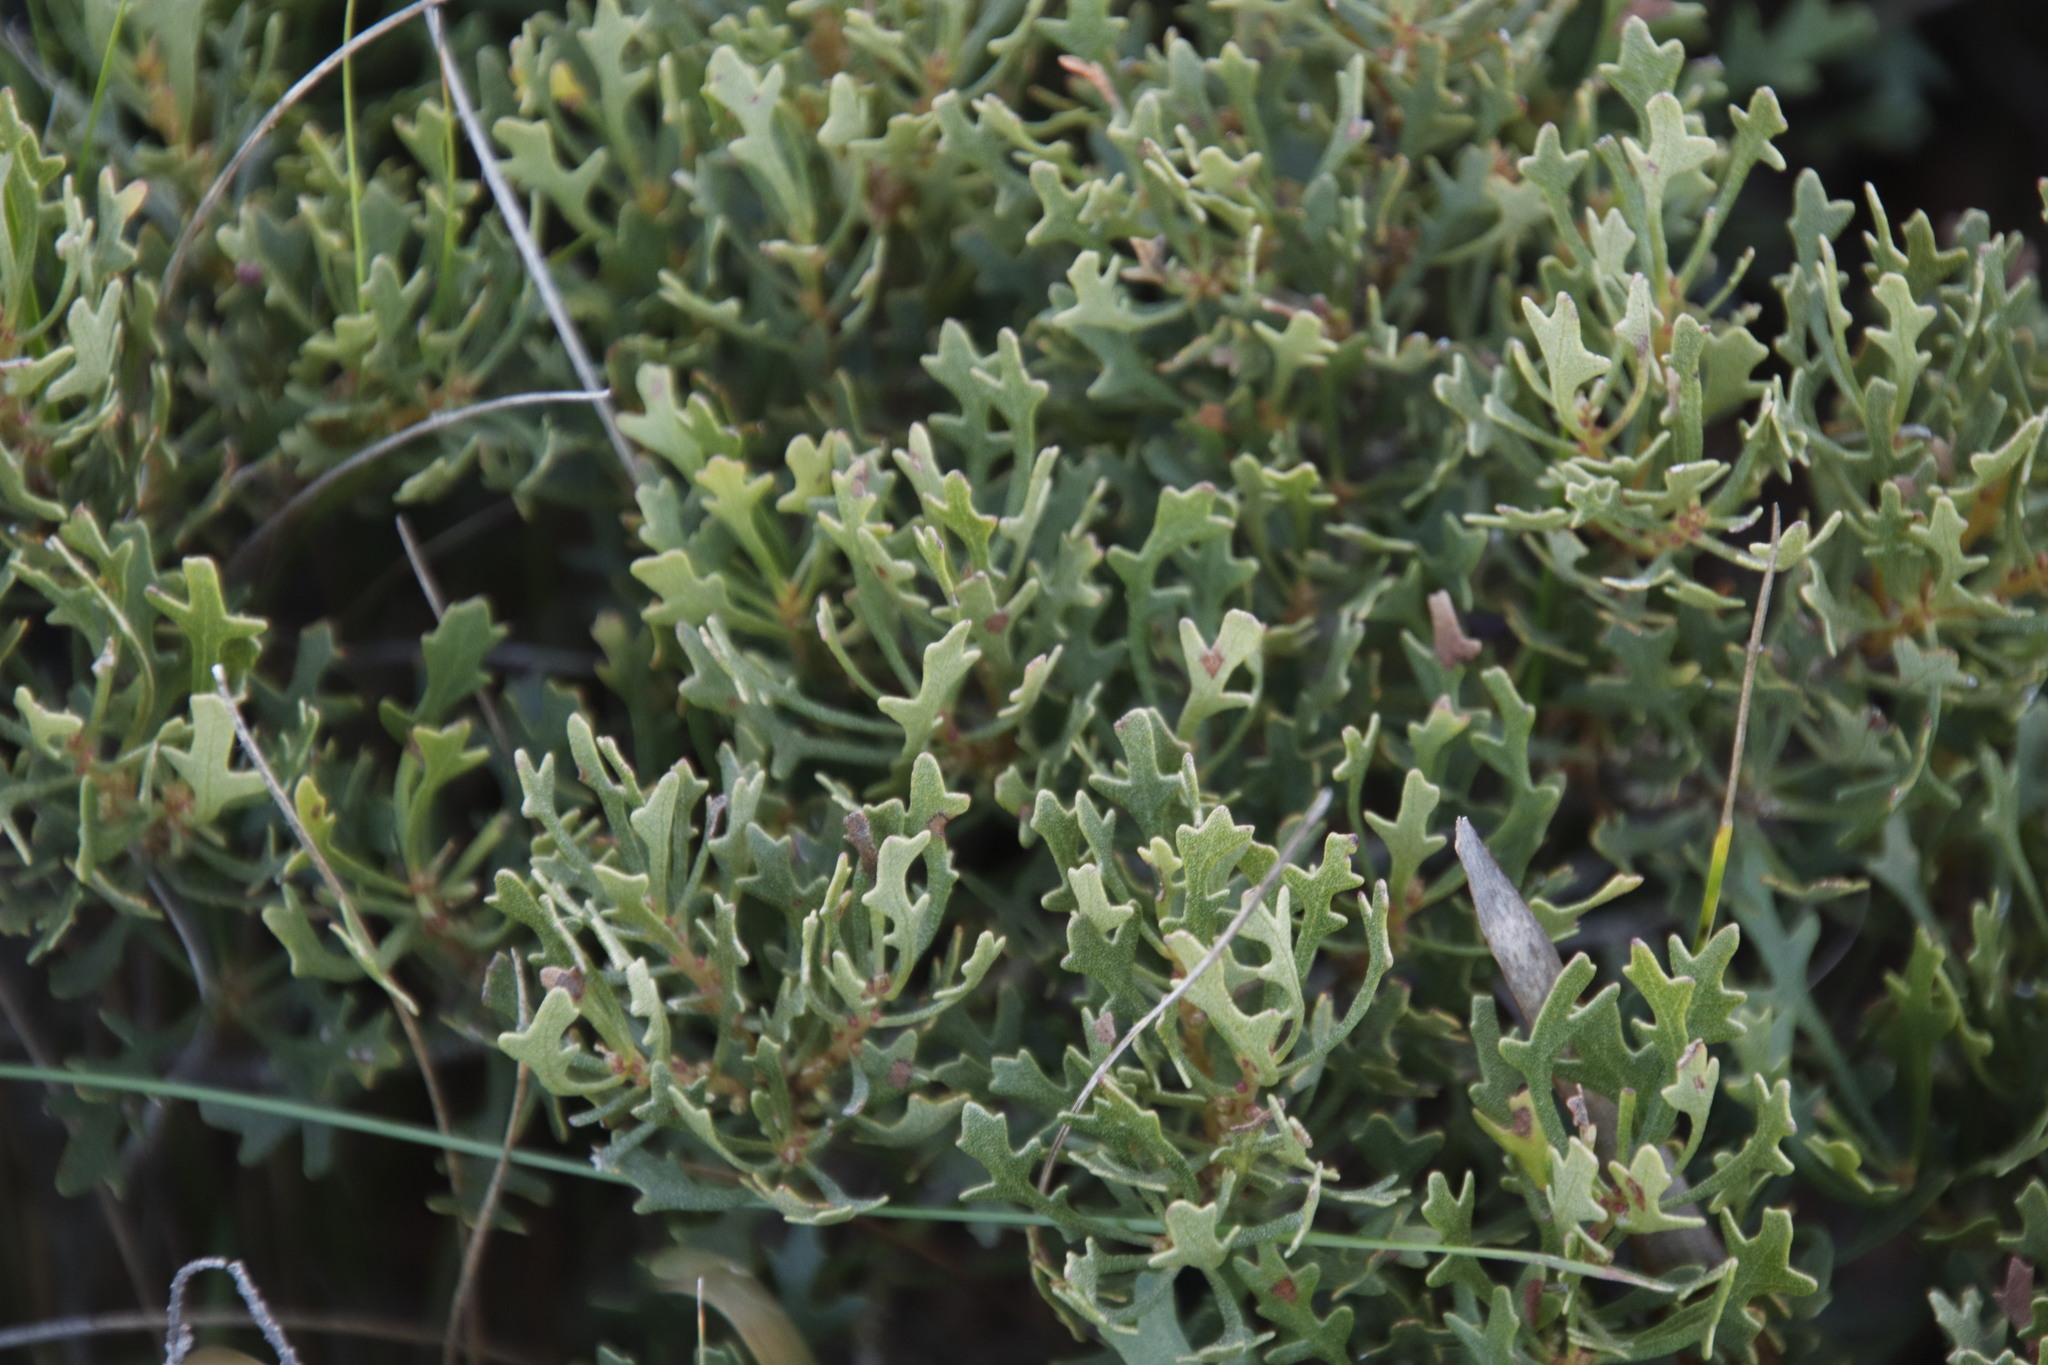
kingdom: Plantae
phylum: Tracheophyta
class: Magnoliopsida
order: Fagales
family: Myricaceae
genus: Morella
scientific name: Morella quercifolia
